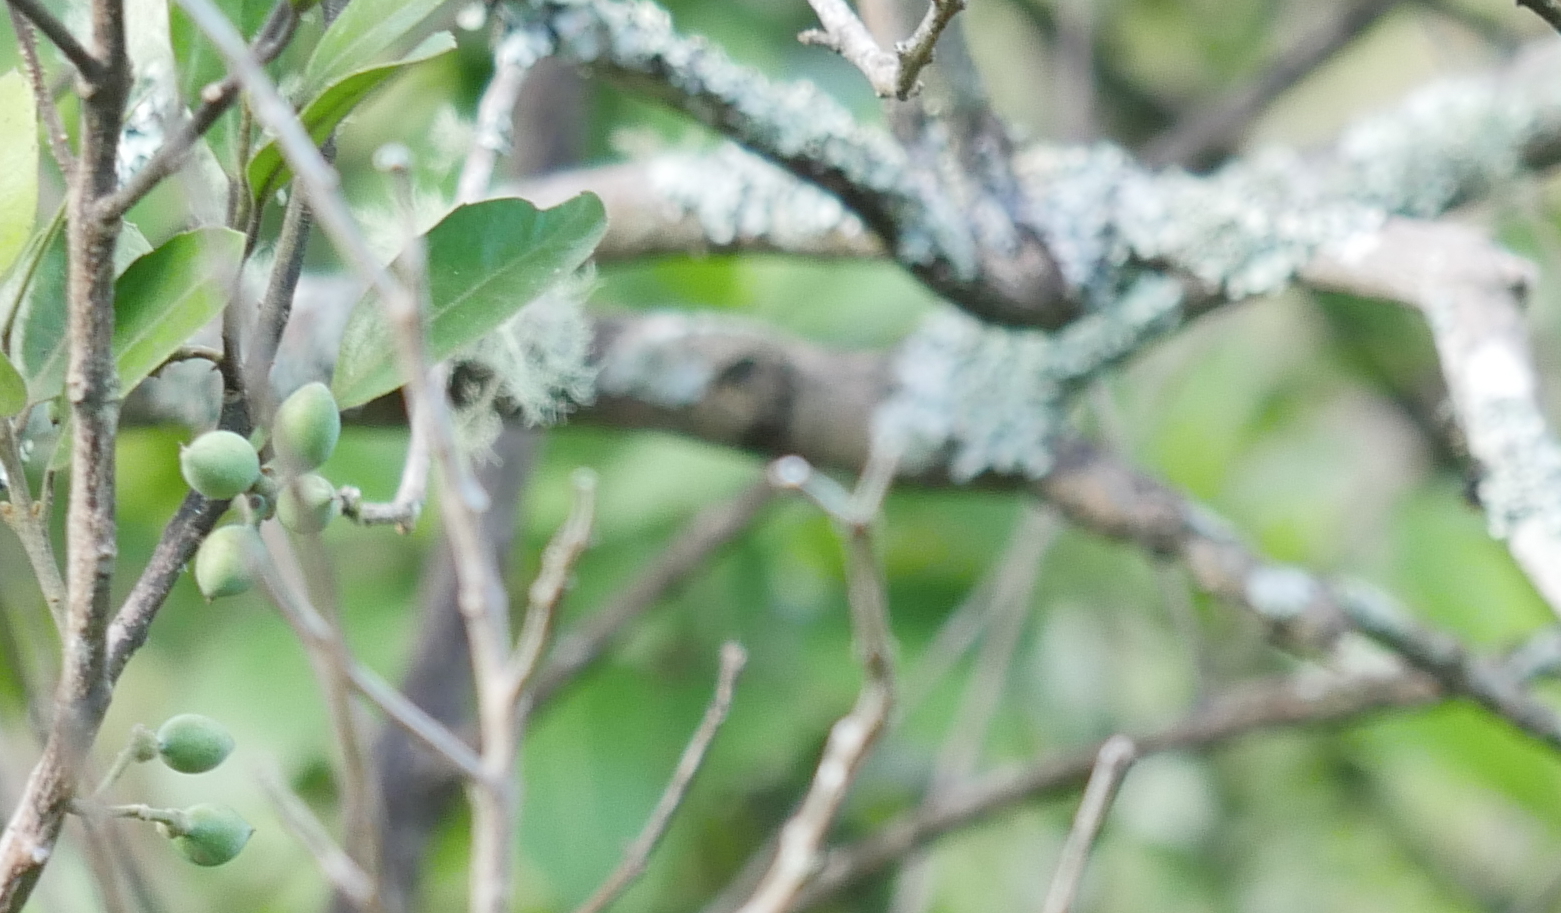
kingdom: Plantae
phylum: Tracheophyta
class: Magnoliopsida
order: Laurales
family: Monimiaceae
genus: Hedycarya
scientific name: Hedycarya arborea
